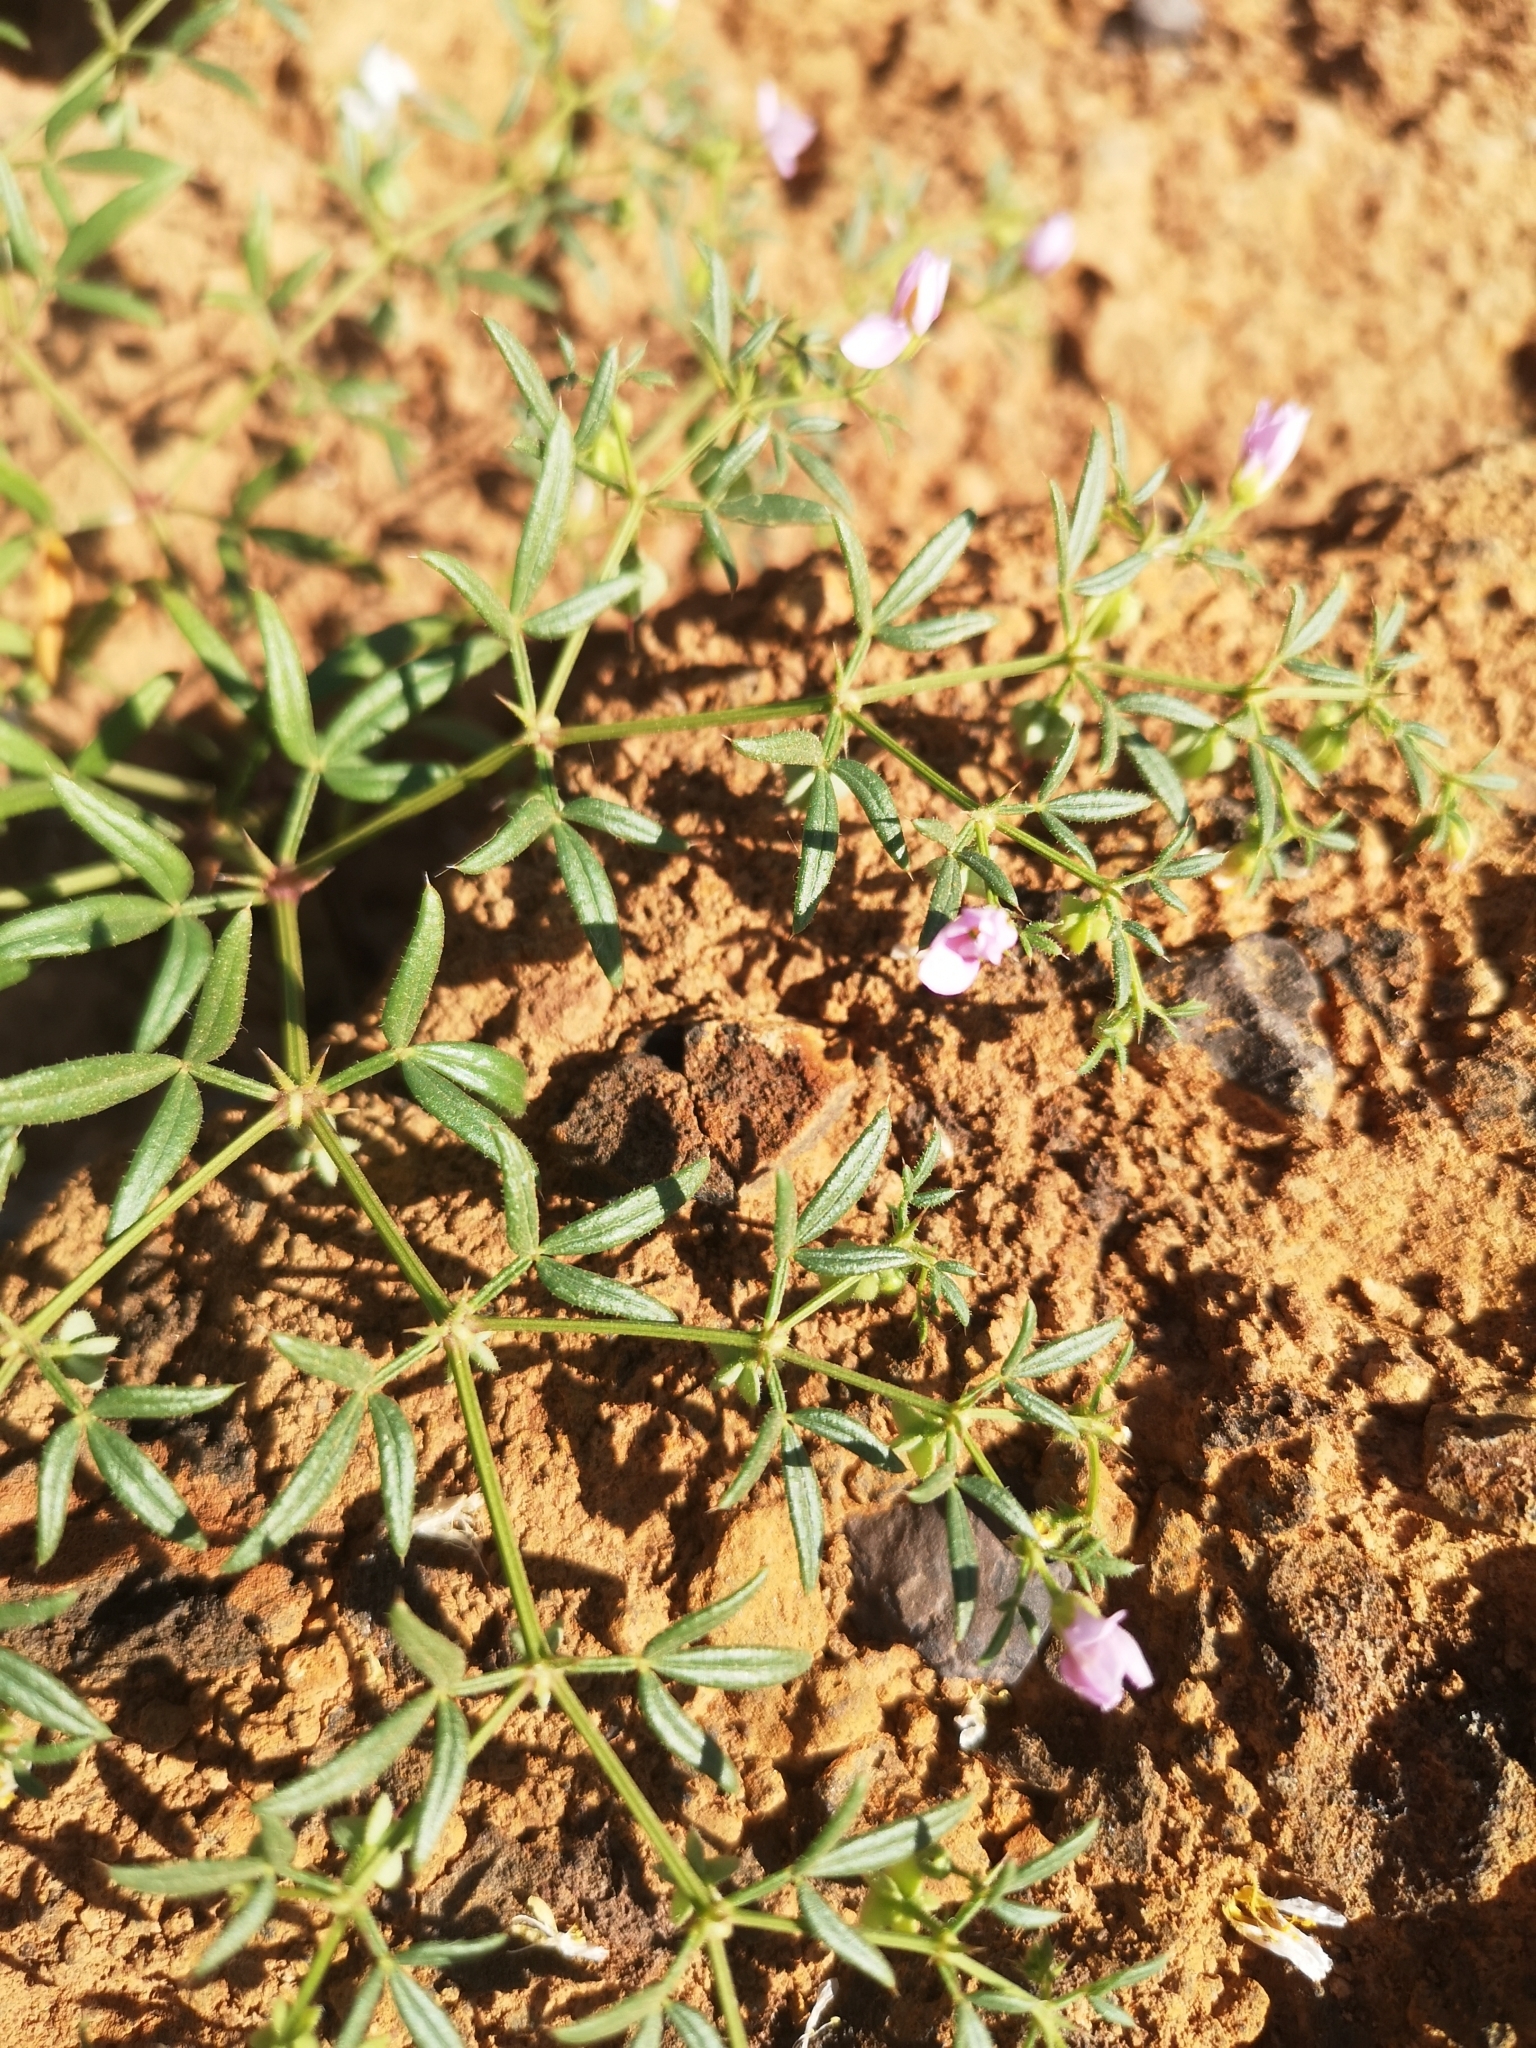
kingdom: Plantae
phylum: Tracheophyta
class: Magnoliopsida
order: Zygophyllales
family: Zygophyllaceae
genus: Fagonia
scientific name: Fagonia cretica
